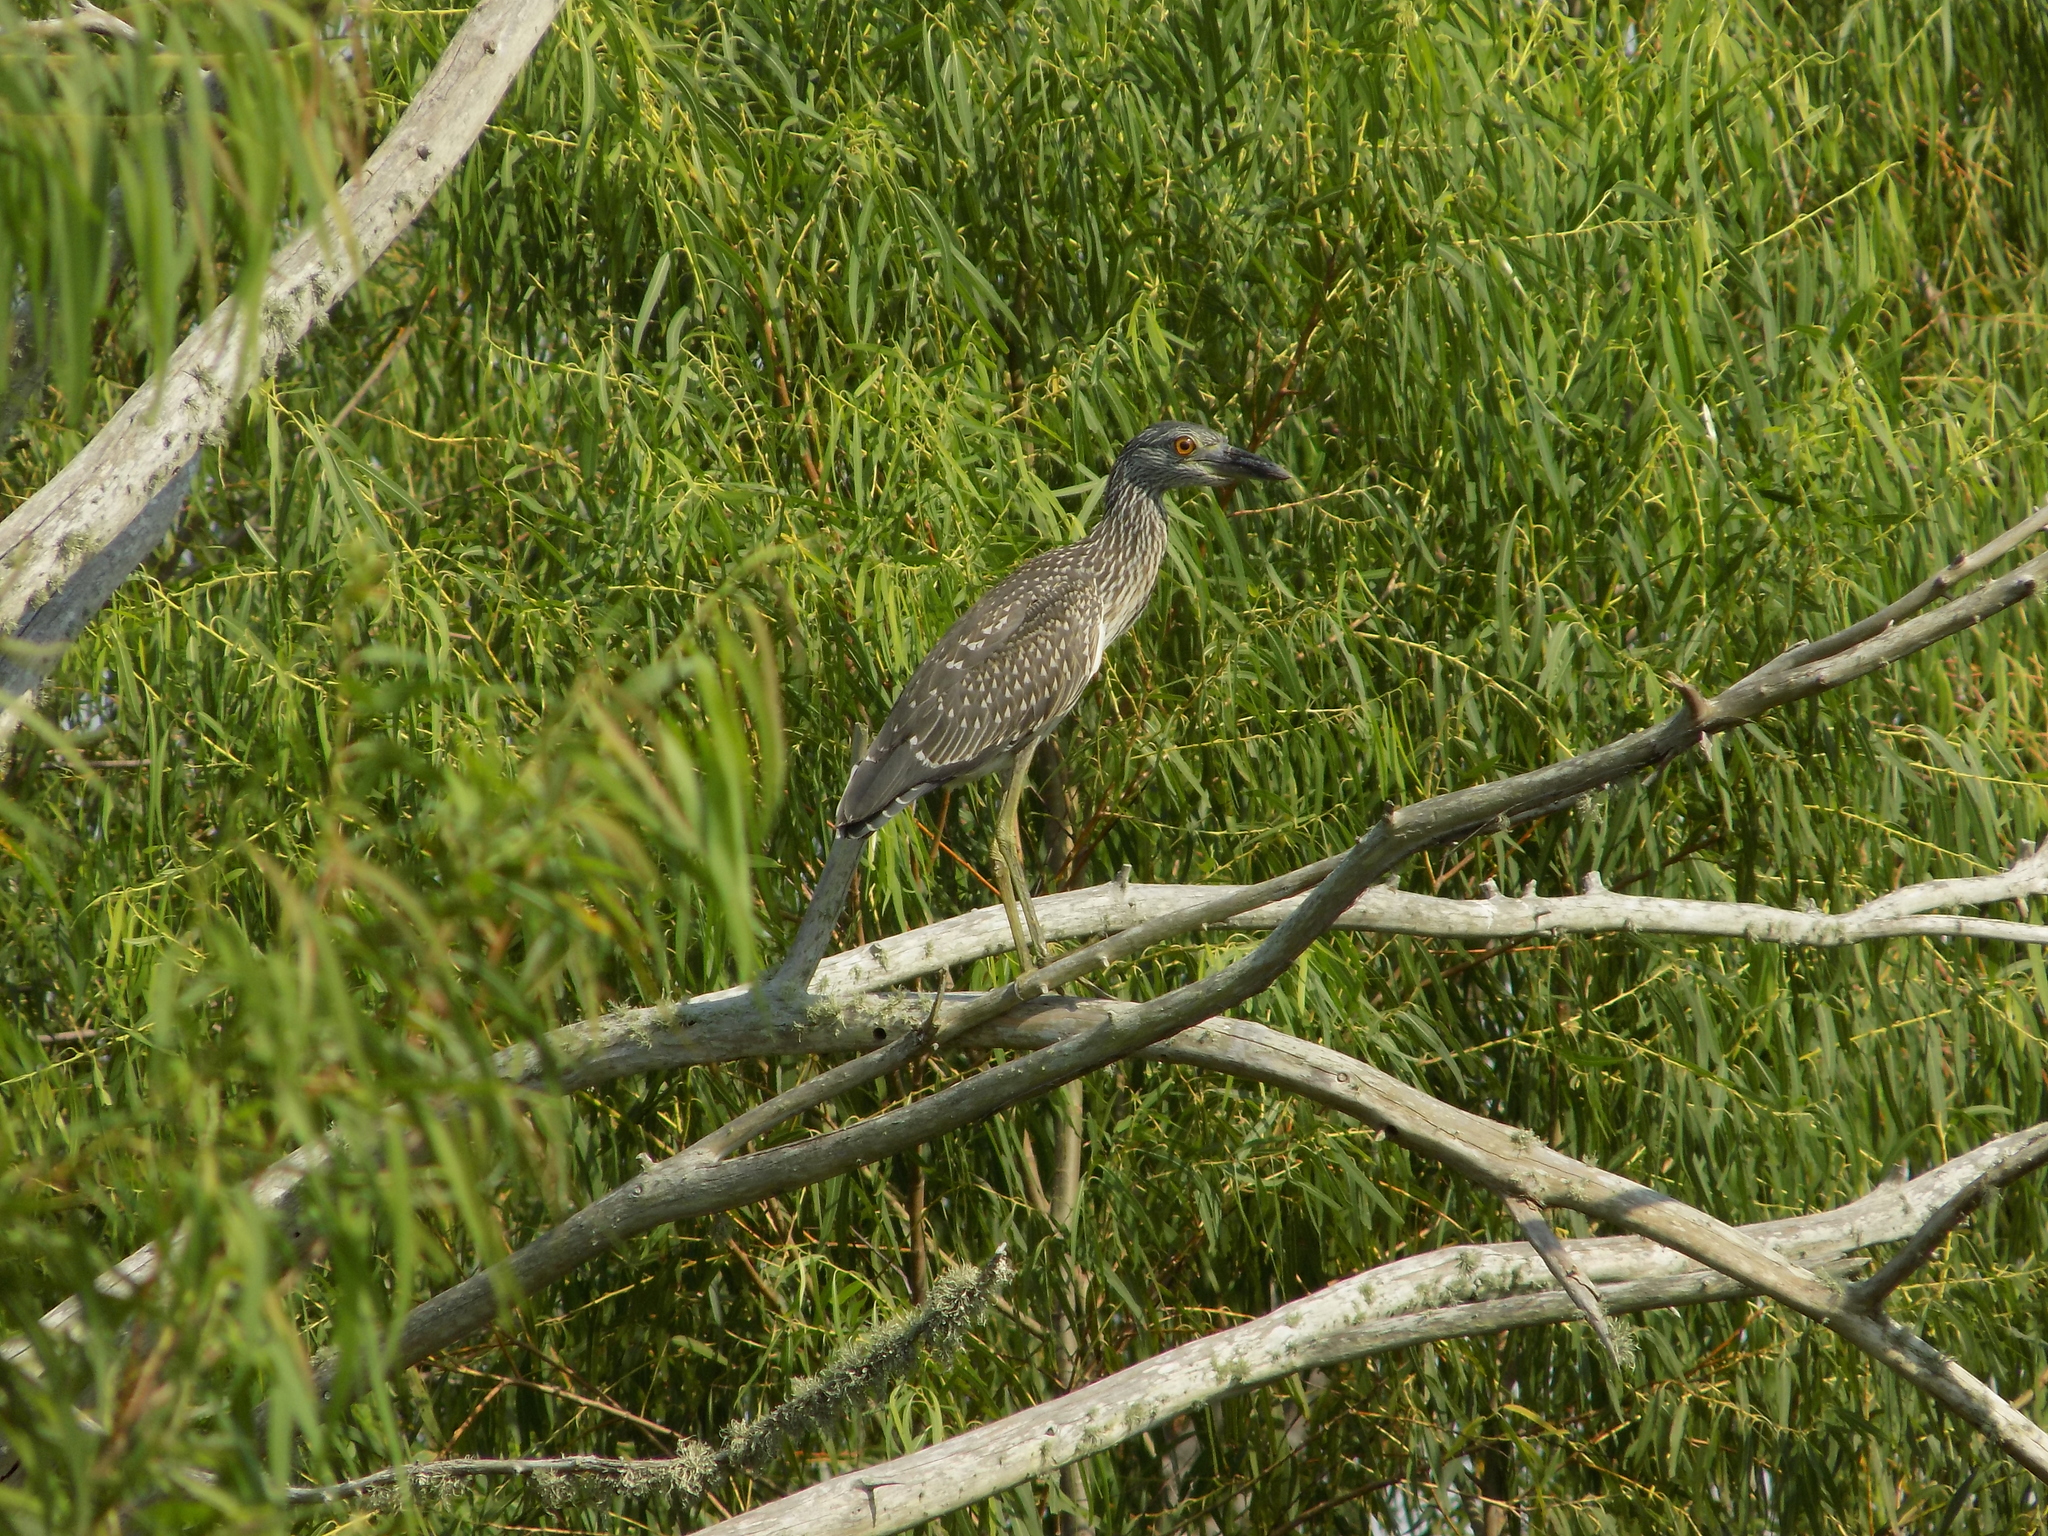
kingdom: Animalia
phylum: Chordata
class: Aves
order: Pelecaniformes
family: Ardeidae
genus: Nyctanassa
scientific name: Nyctanassa violacea
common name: Yellow-crowned night heron
